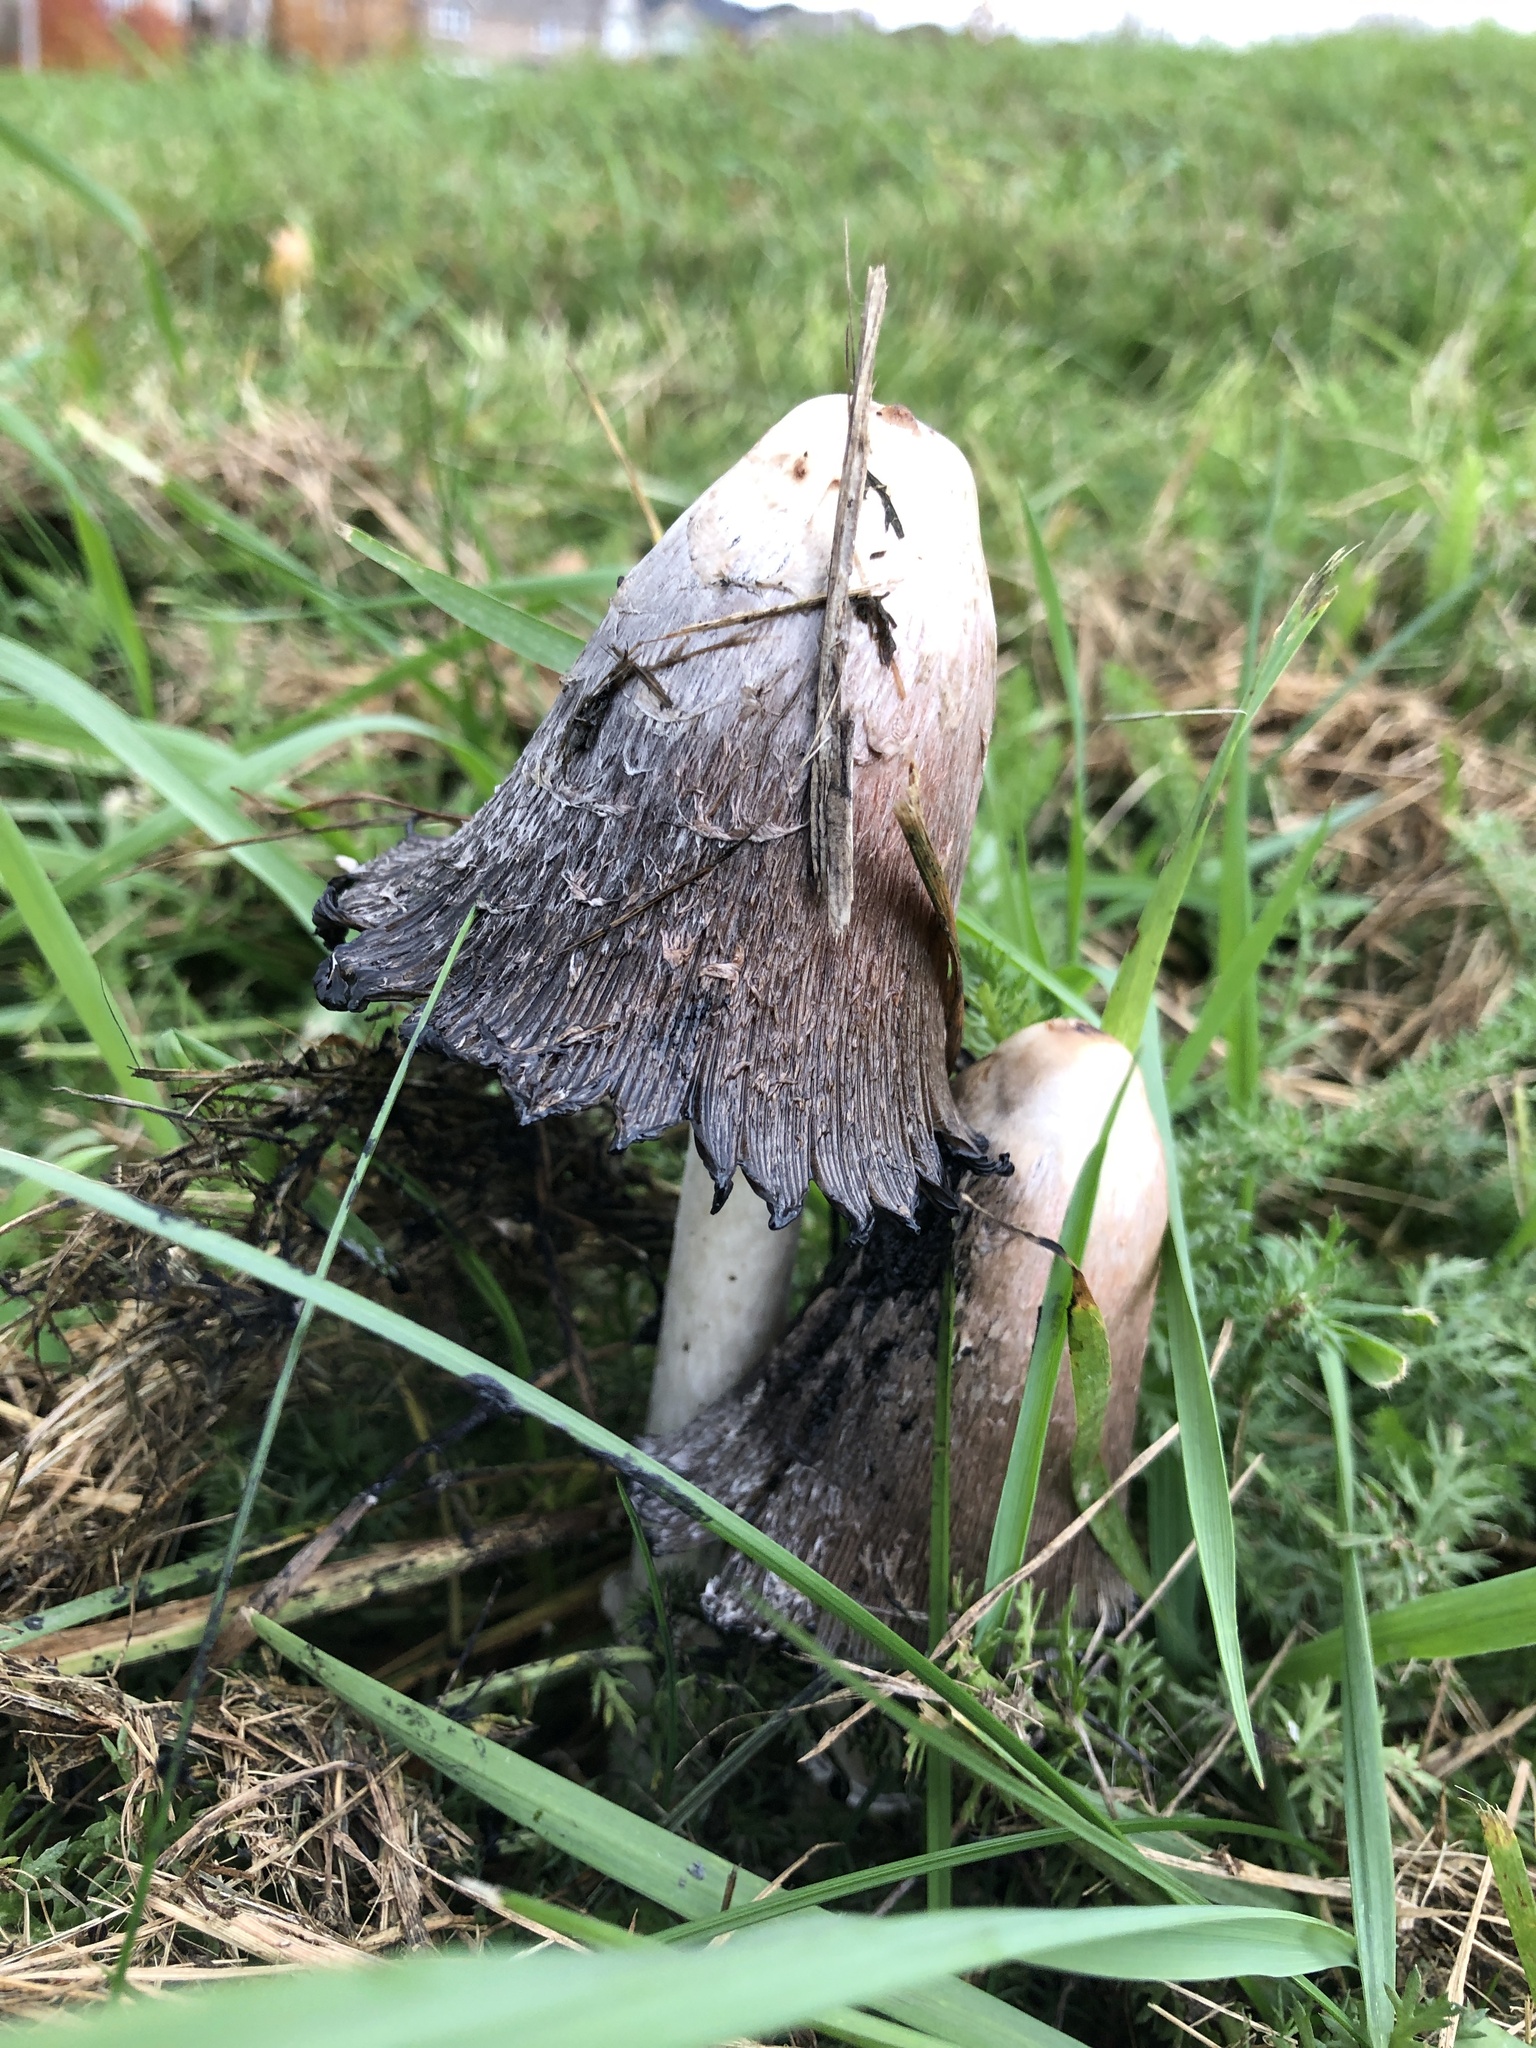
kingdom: Fungi
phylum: Basidiomycota
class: Agaricomycetes
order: Agaricales
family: Agaricaceae
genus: Coprinus
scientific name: Coprinus comatus
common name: Lawyer's wig
